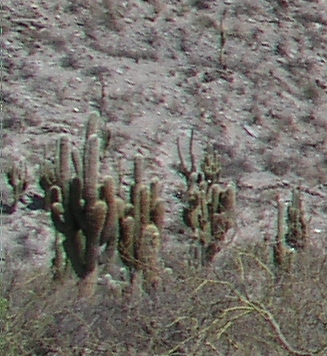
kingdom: Plantae
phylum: Tracheophyta
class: Magnoliopsida
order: Caryophyllales
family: Cactaceae
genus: Leucostele
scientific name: Leucostele atacamensis
